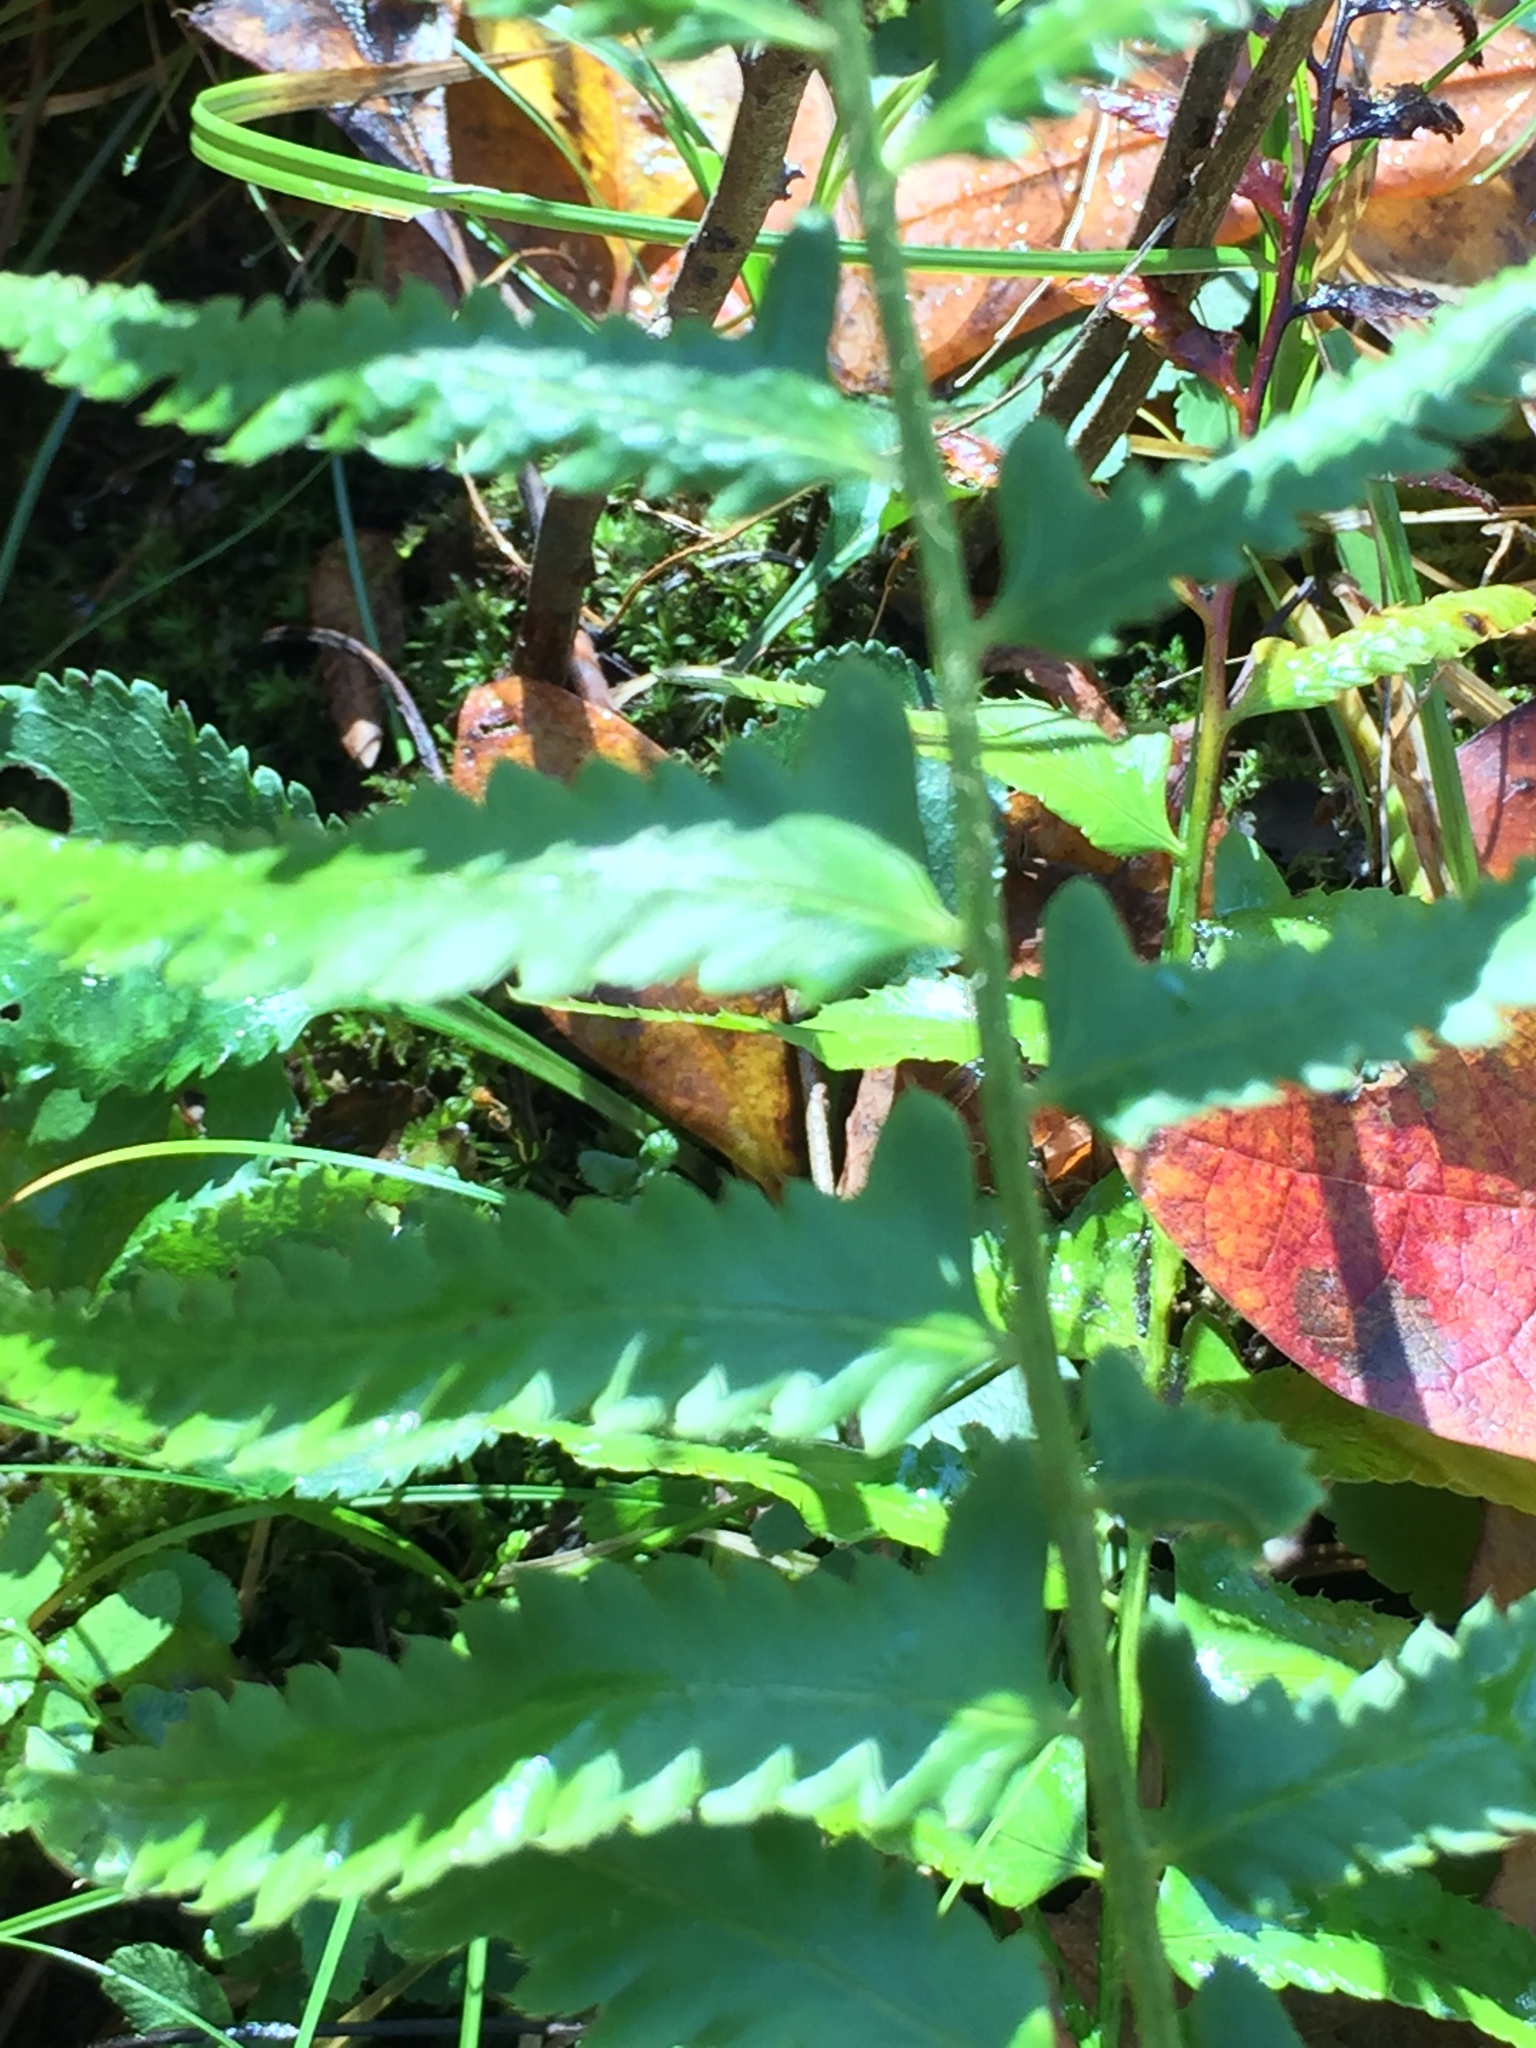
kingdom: Plantae
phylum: Tracheophyta
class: Polypodiopsida
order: Polypodiales
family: Dryopteridaceae
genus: Polystichum
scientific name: Polystichum acrostichoides
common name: Christmas fern
